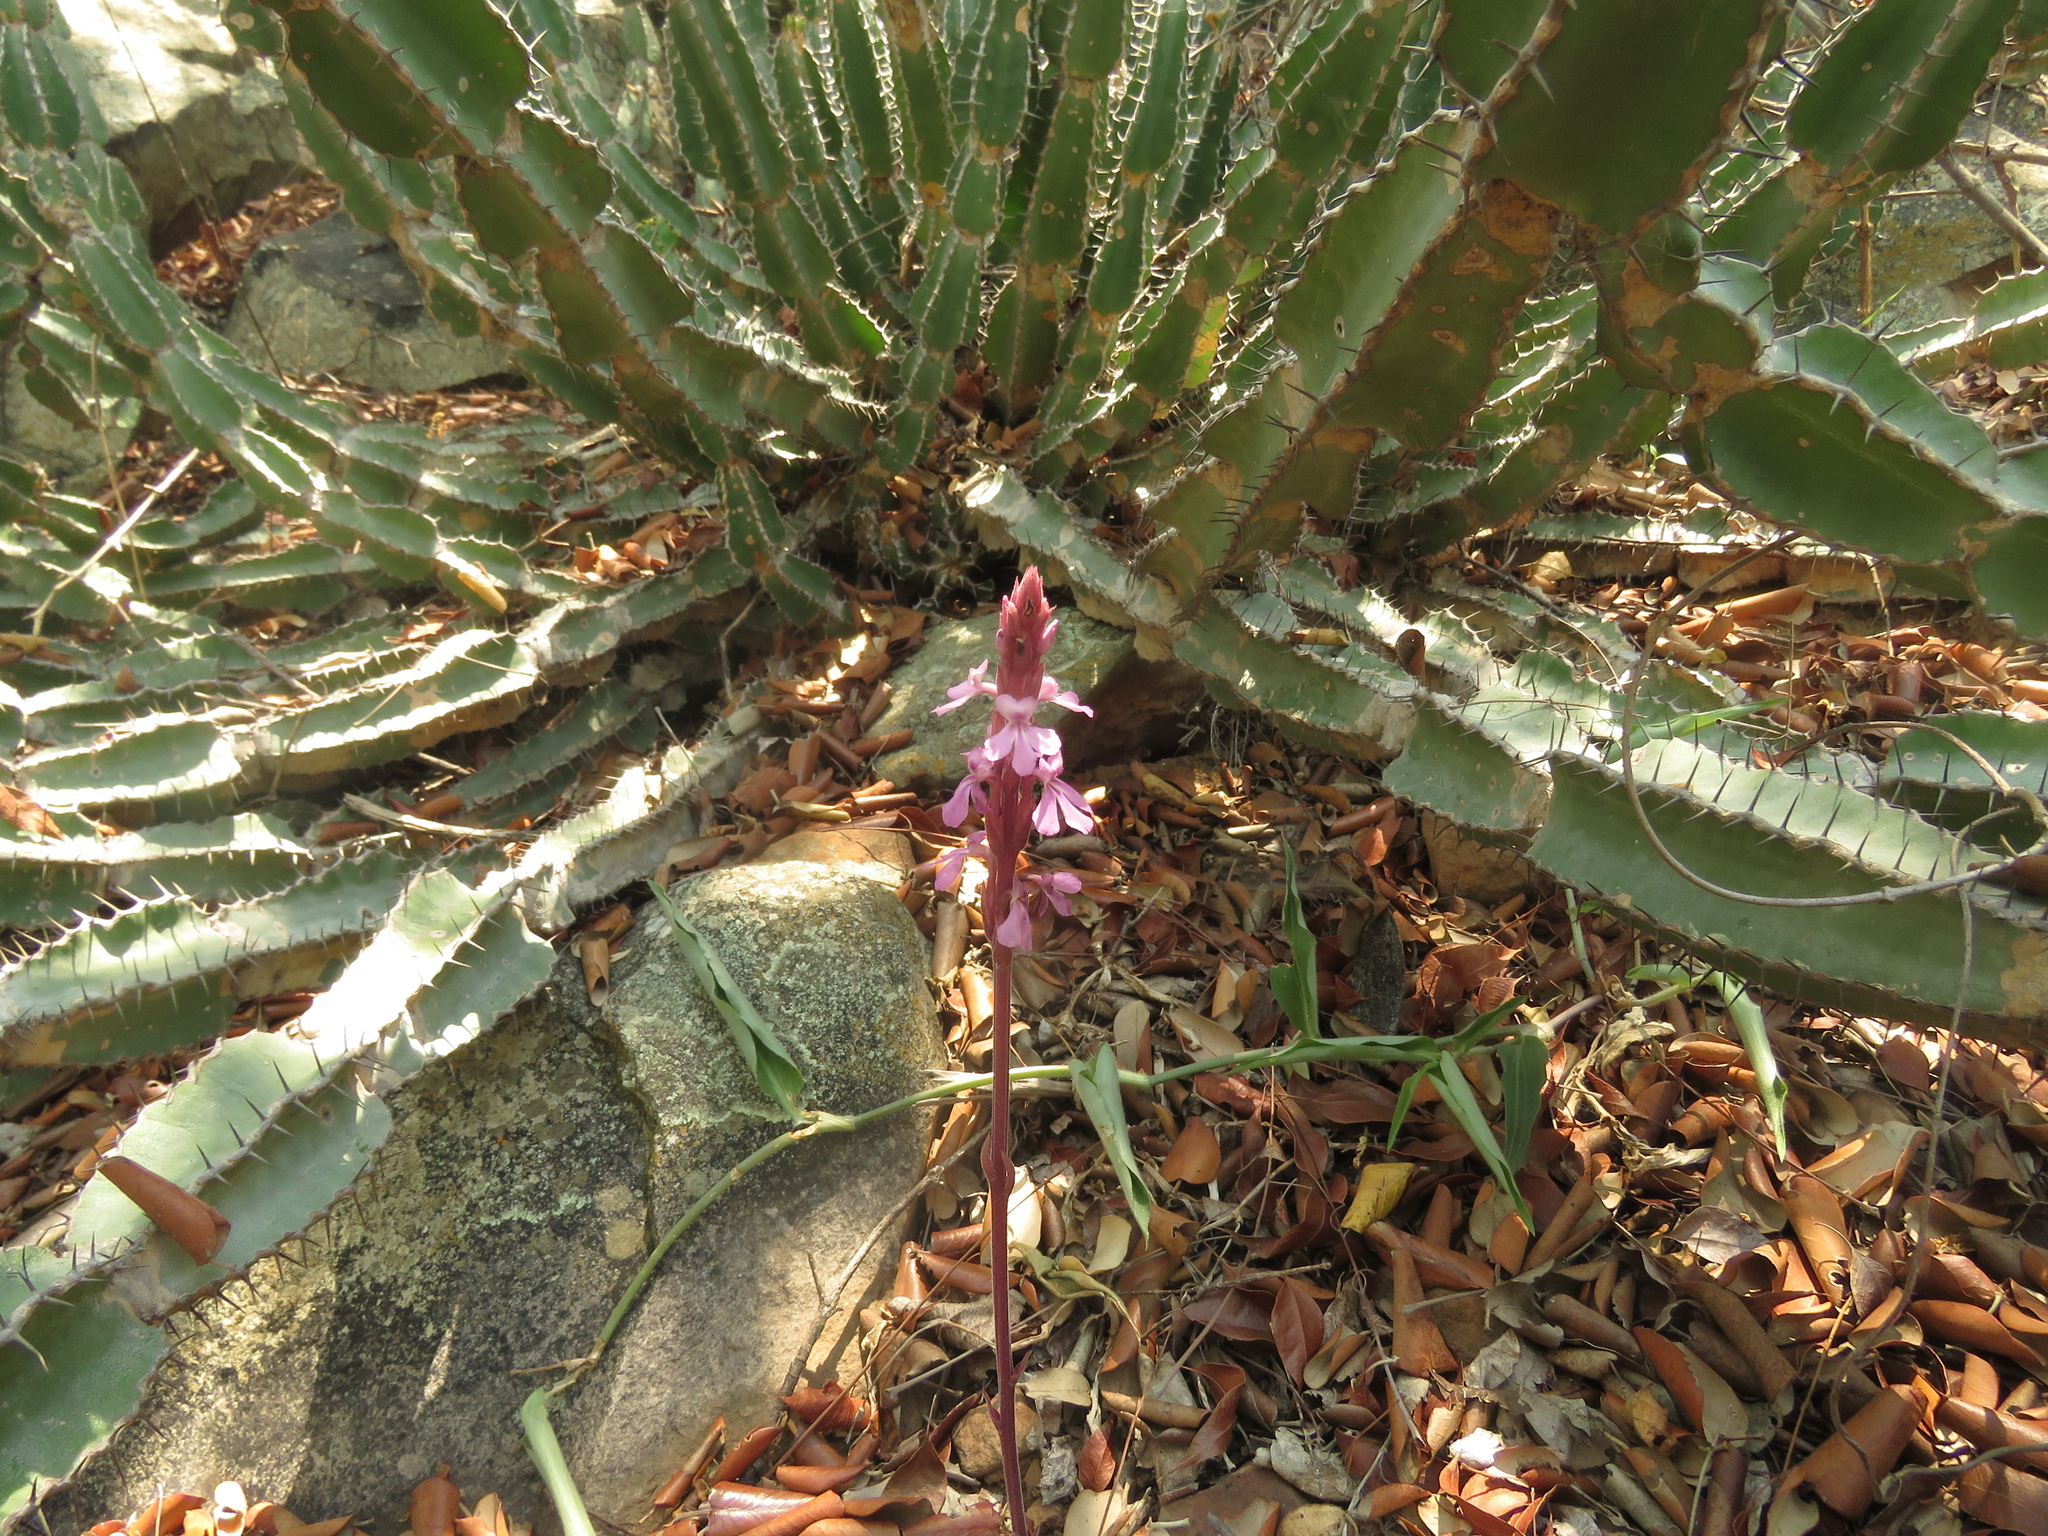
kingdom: Plantae
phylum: Tracheophyta
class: Magnoliopsida
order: Malpighiales
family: Euphorbiaceae
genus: Euphorbia
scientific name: Euphorbia rowlandii
